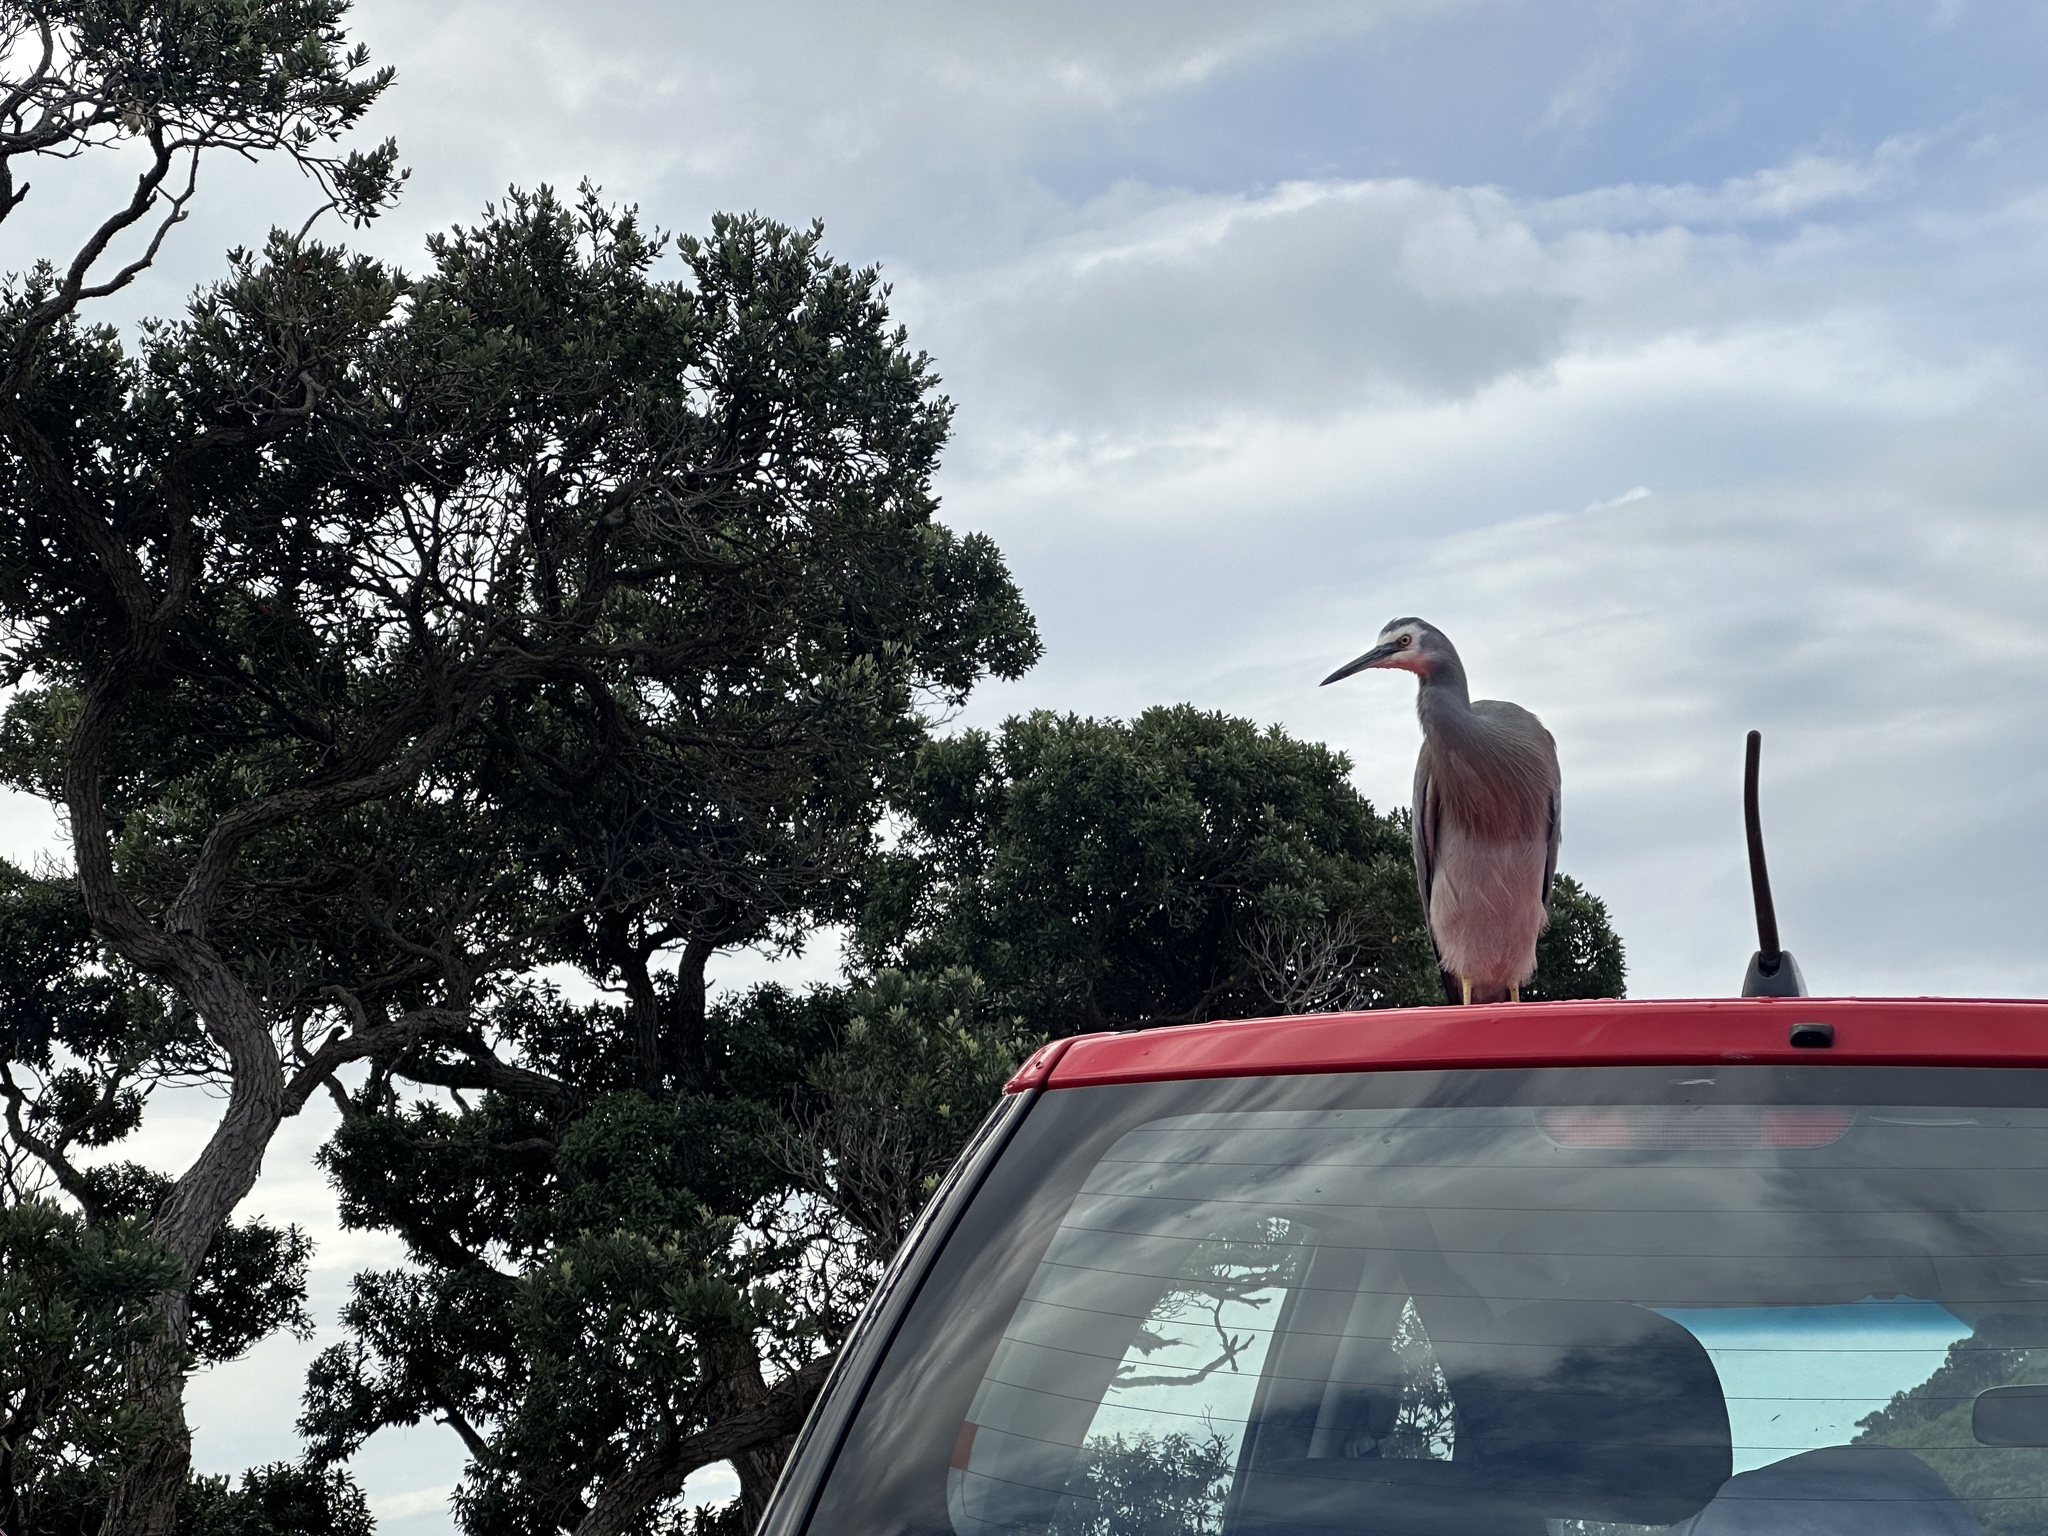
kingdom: Animalia
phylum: Chordata
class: Aves
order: Pelecaniformes
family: Ardeidae
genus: Egretta
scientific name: Egretta novaehollandiae
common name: White-faced heron
